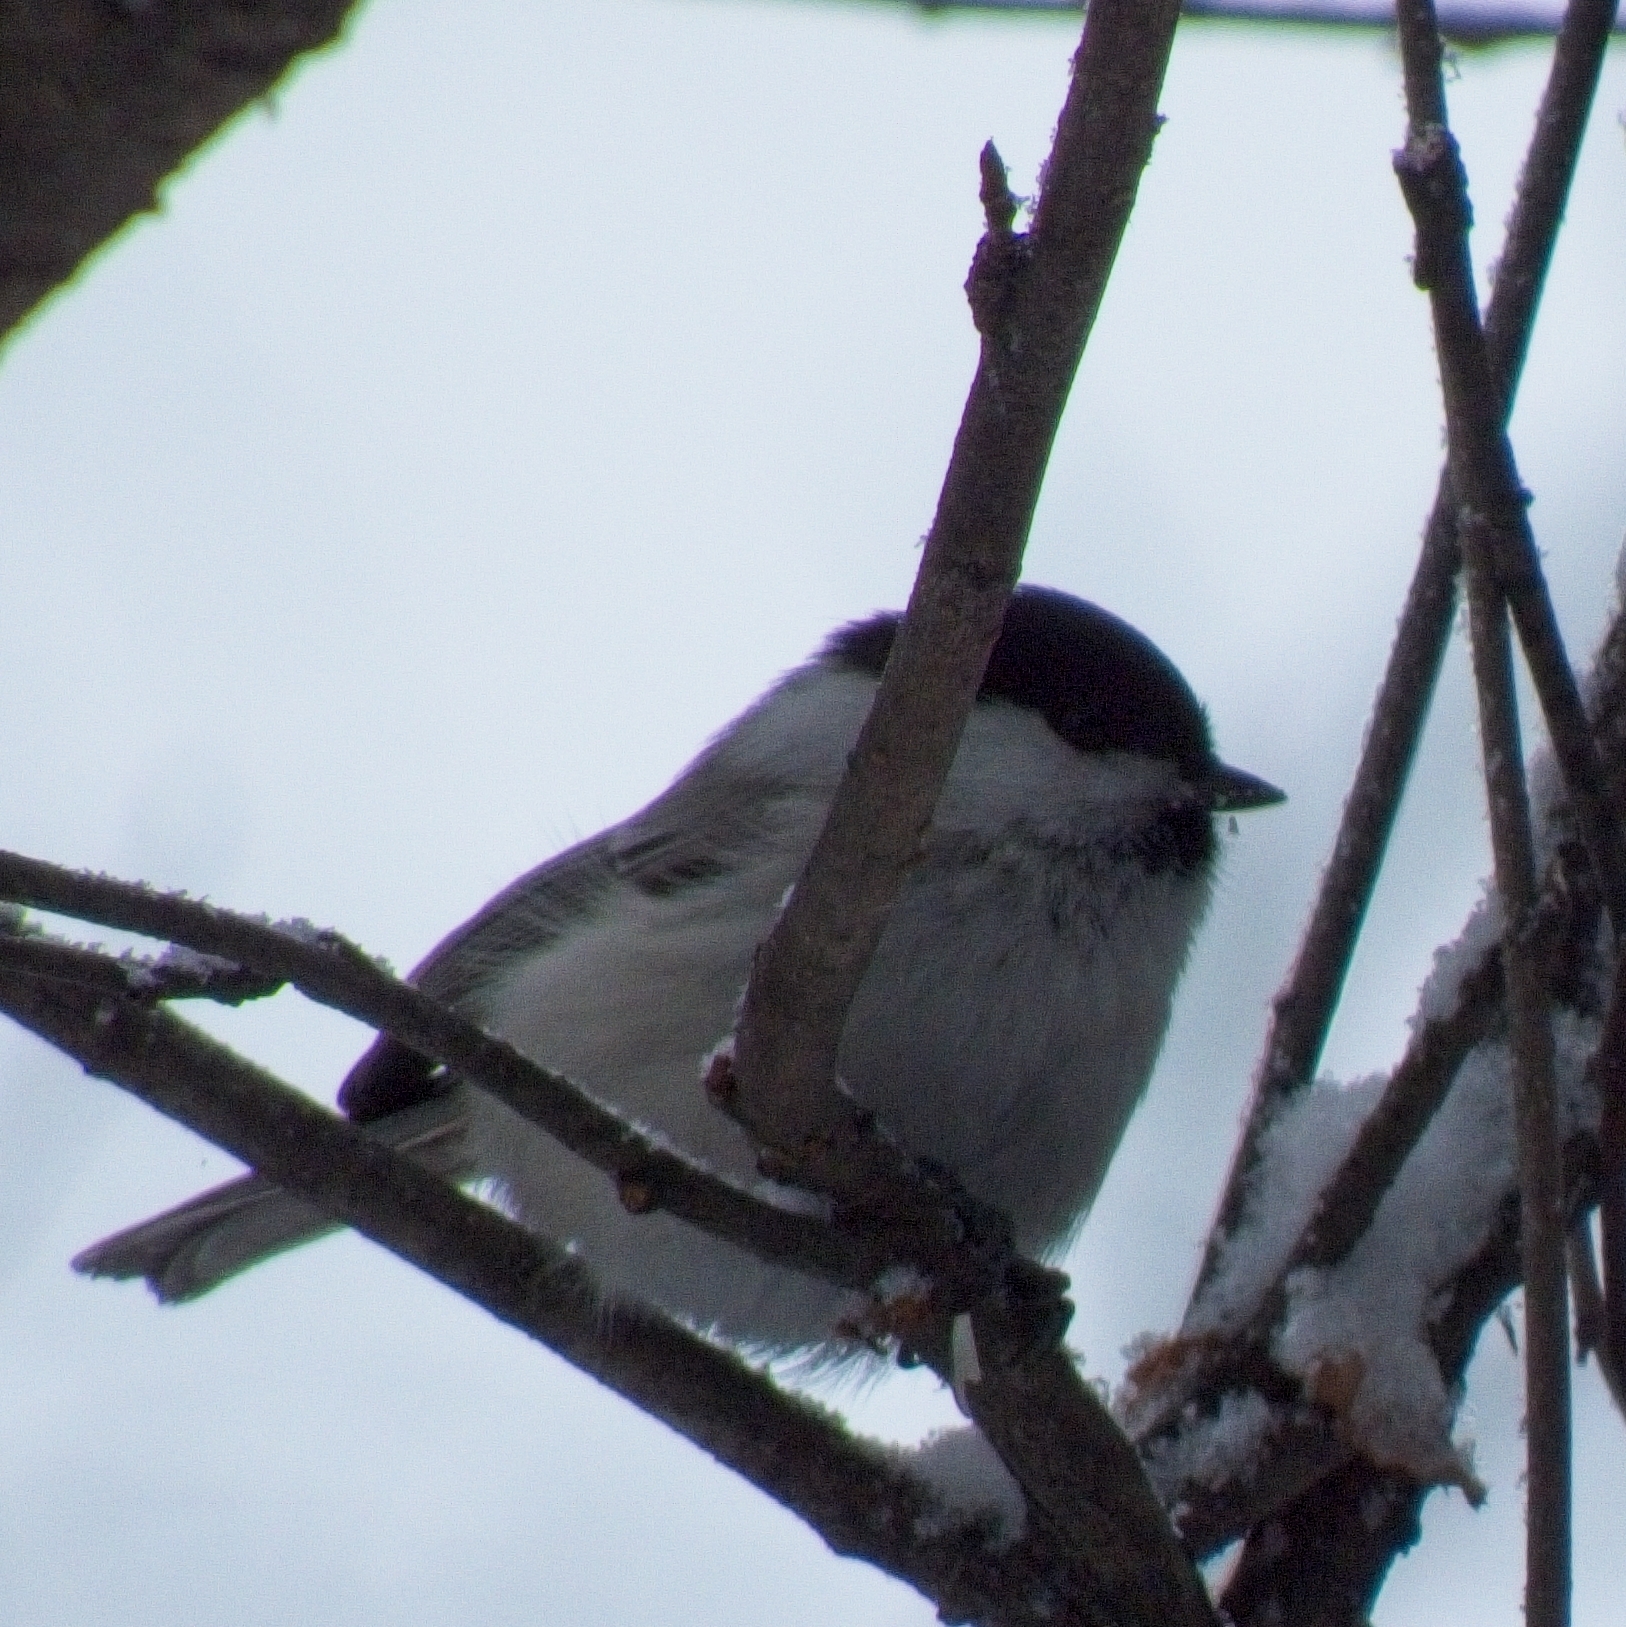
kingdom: Animalia
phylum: Chordata
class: Aves
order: Passeriformes
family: Paridae
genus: Poecile
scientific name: Poecile montanus
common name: Willow tit
